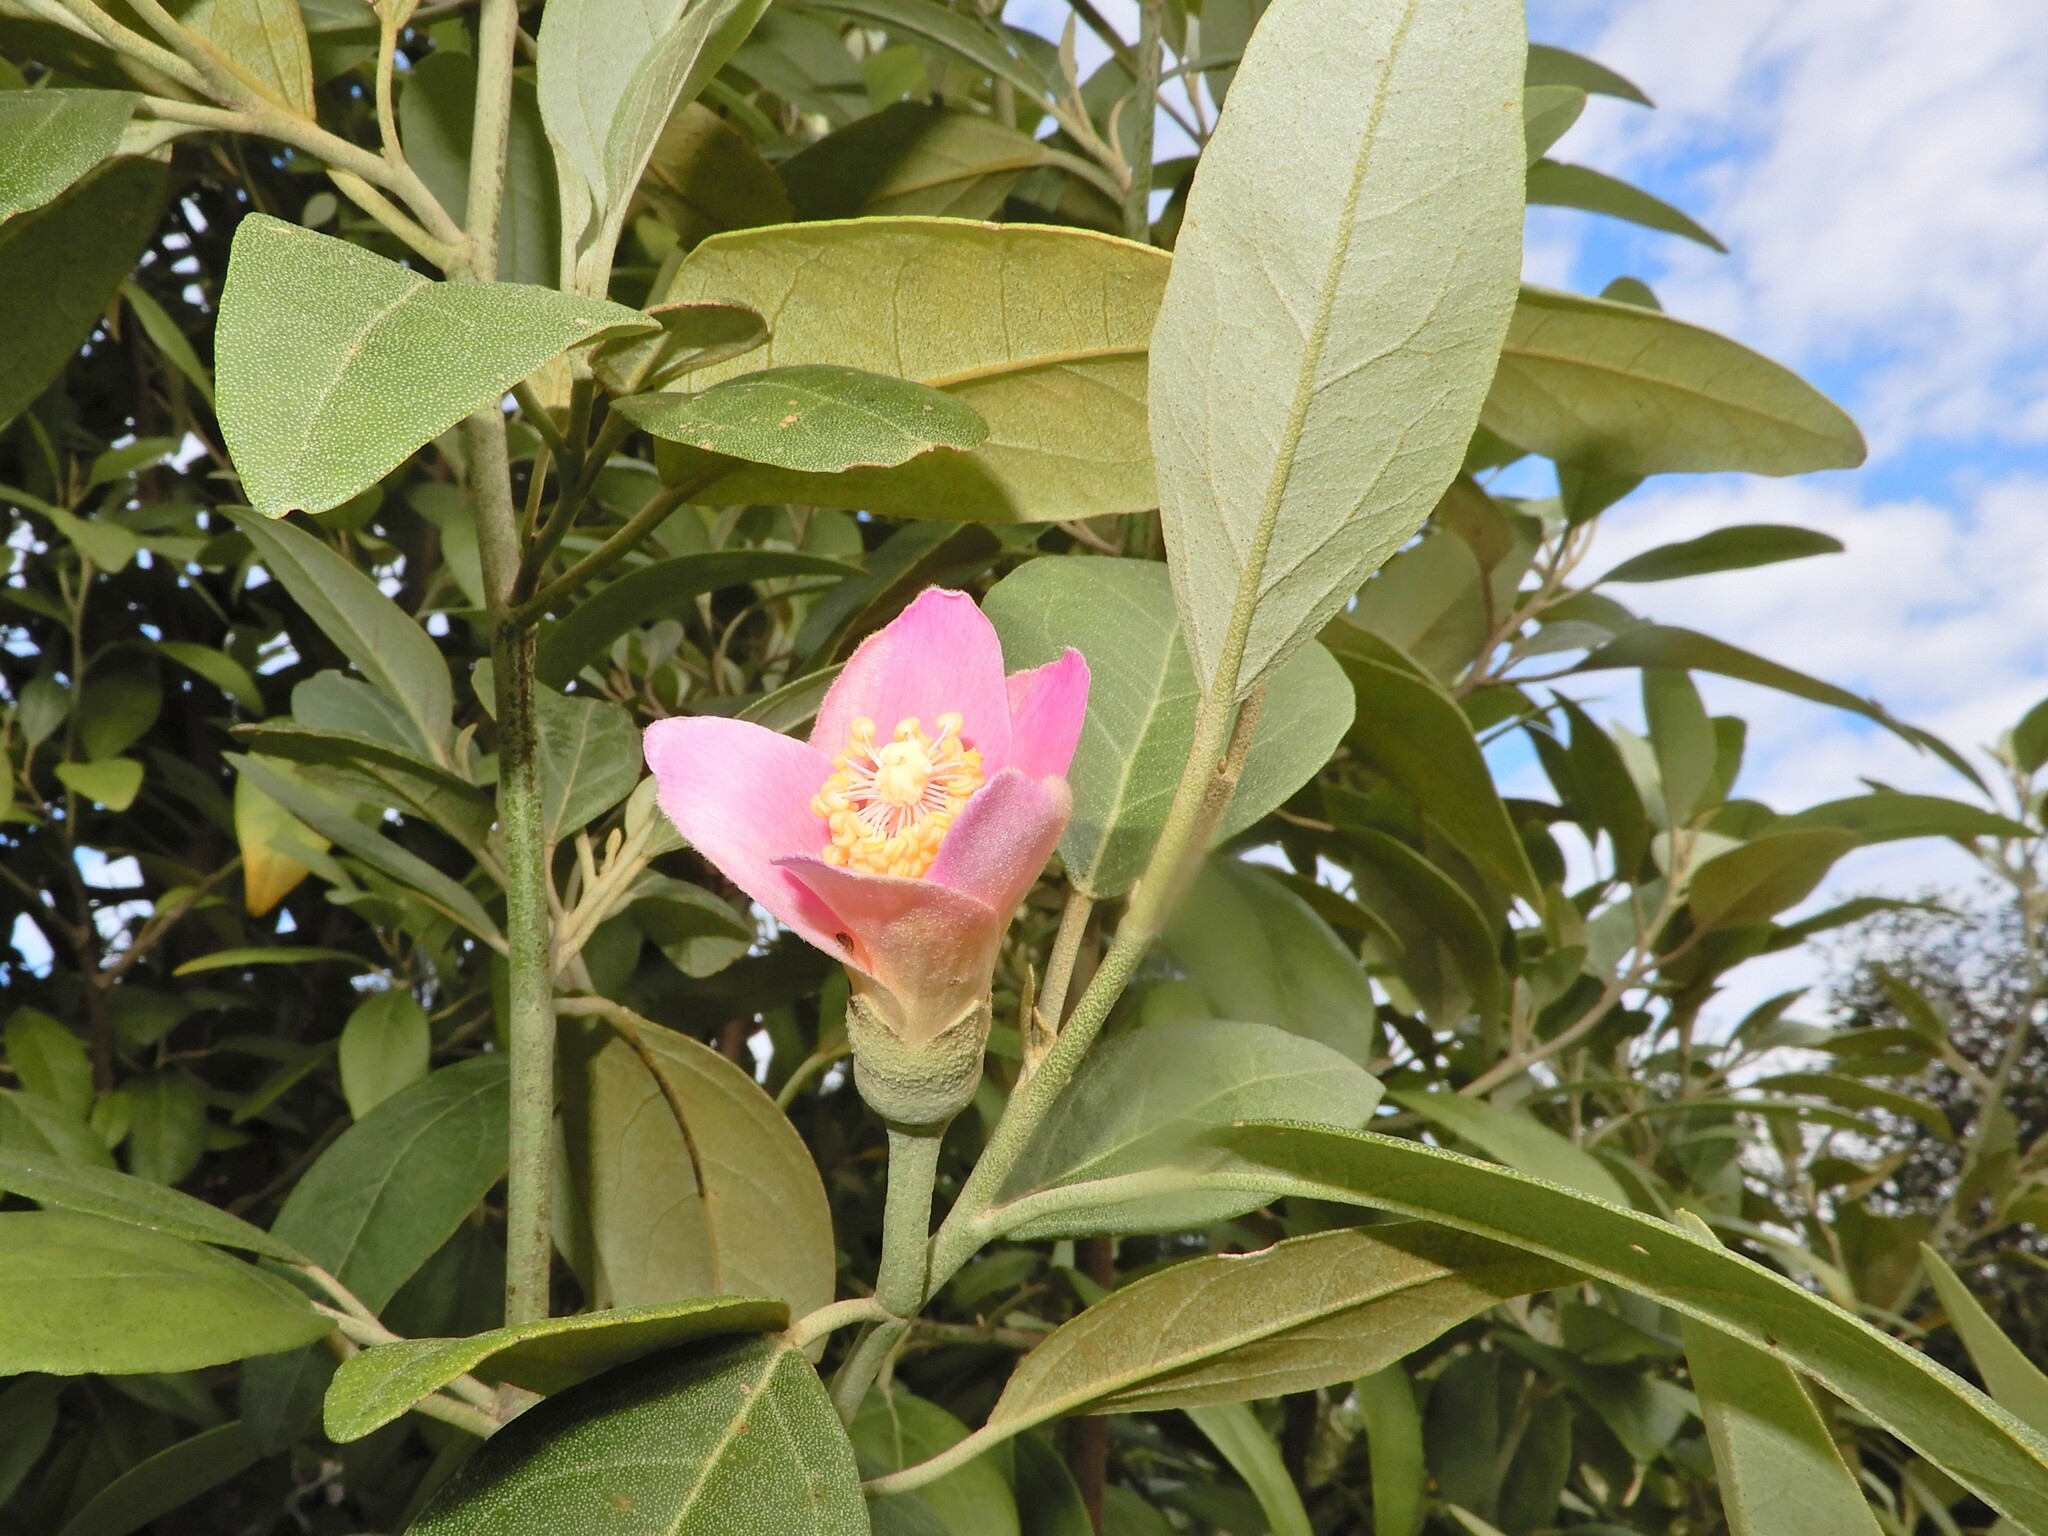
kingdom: Plantae
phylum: Tracheophyta
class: Magnoliopsida
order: Malvales
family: Malvaceae
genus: Lagunaria
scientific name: Lagunaria patersonia
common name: Cow itch tree
